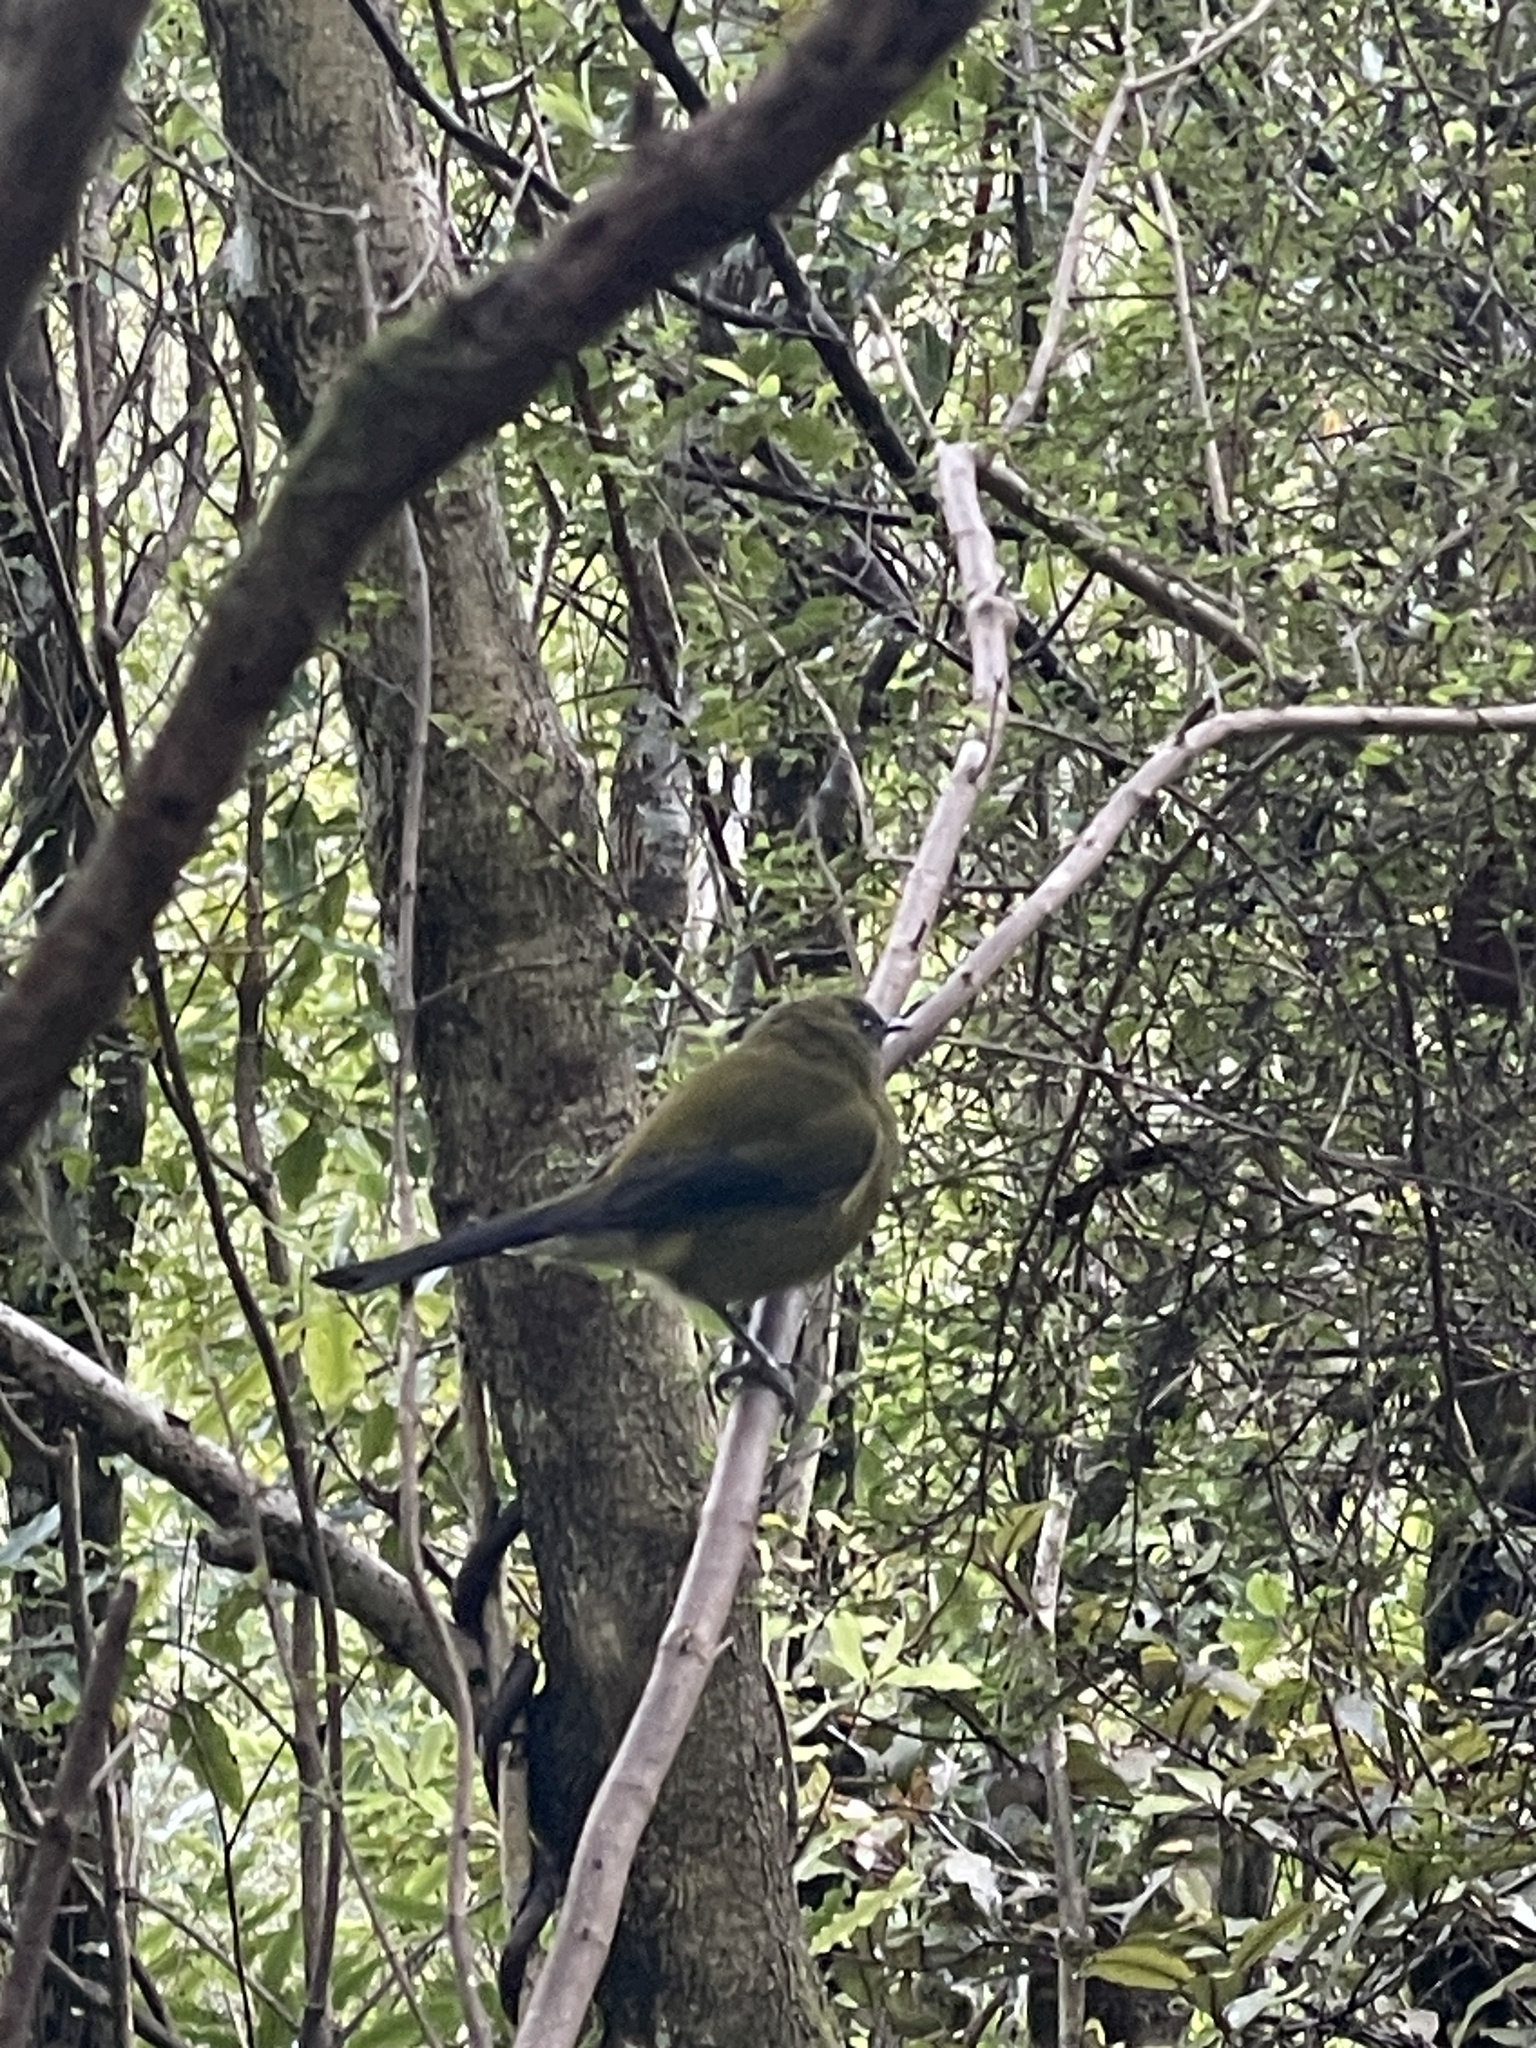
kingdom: Animalia
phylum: Chordata
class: Aves
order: Passeriformes
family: Meliphagidae
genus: Anthornis
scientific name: Anthornis melanura
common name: New zealand bellbird
